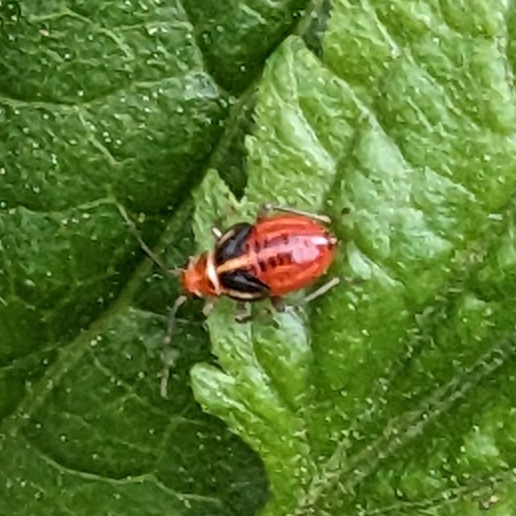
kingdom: Animalia
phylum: Arthropoda
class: Insecta
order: Hemiptera
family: Miridae
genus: Poecilocapsus
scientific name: Poecilocapsus lineatus
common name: Four-lined plant bug
